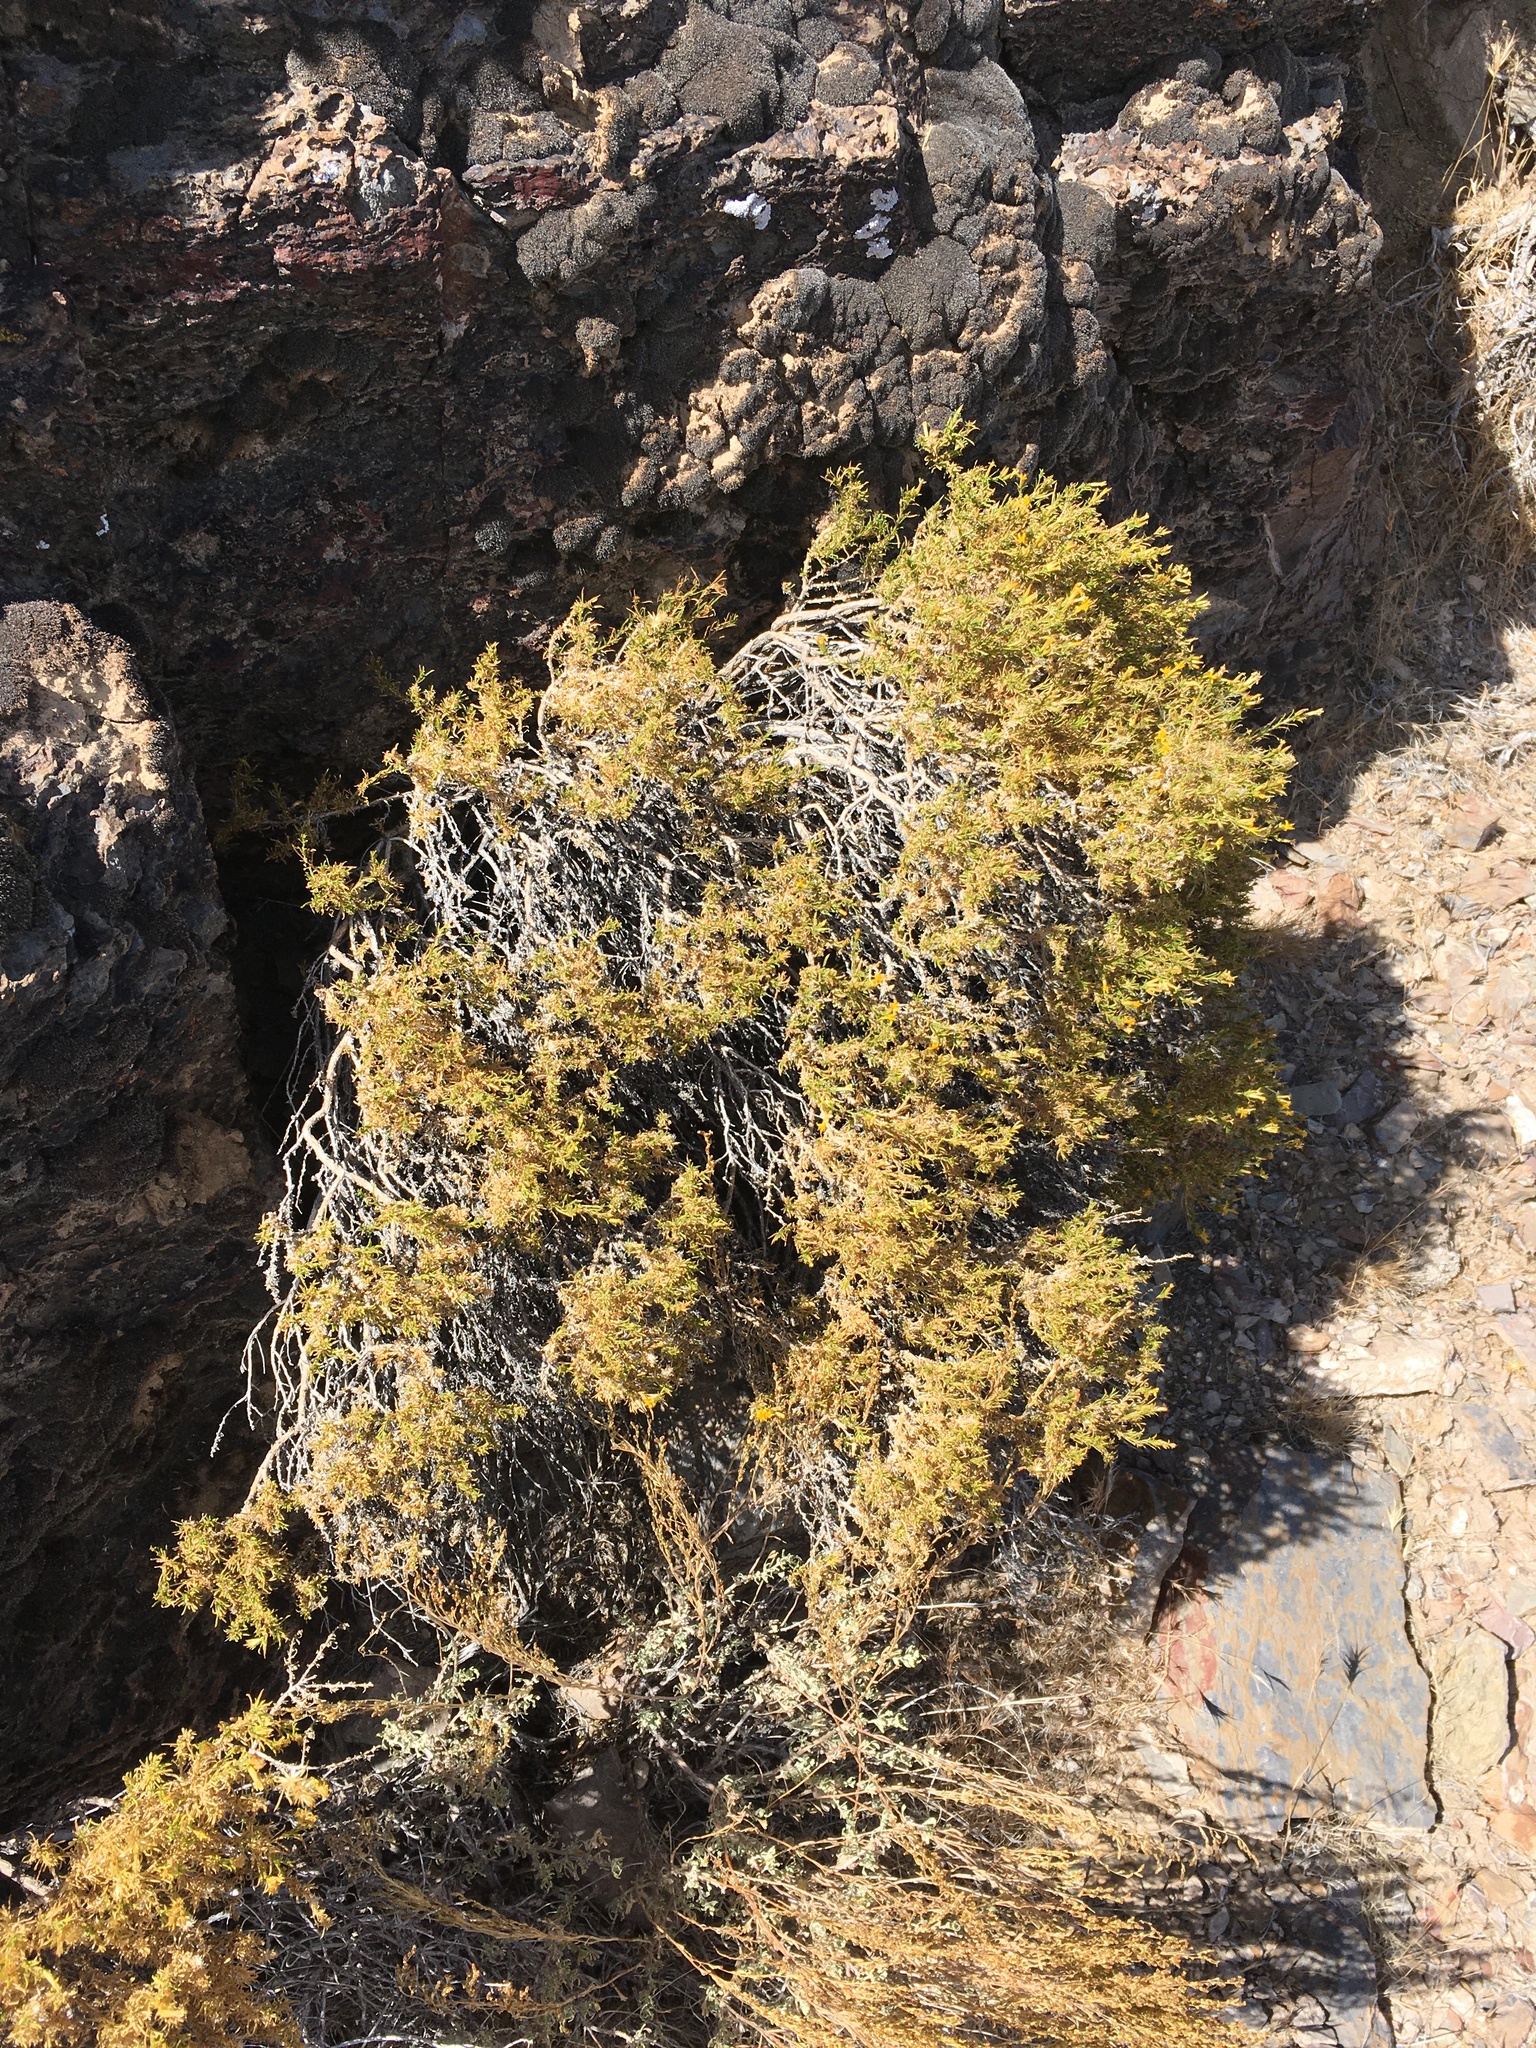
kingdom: Plantae
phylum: Tracheophyta
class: Magnoliopsida
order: Fabales
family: Fabaceae
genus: Astragalus
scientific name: Astragalus panamintensis
